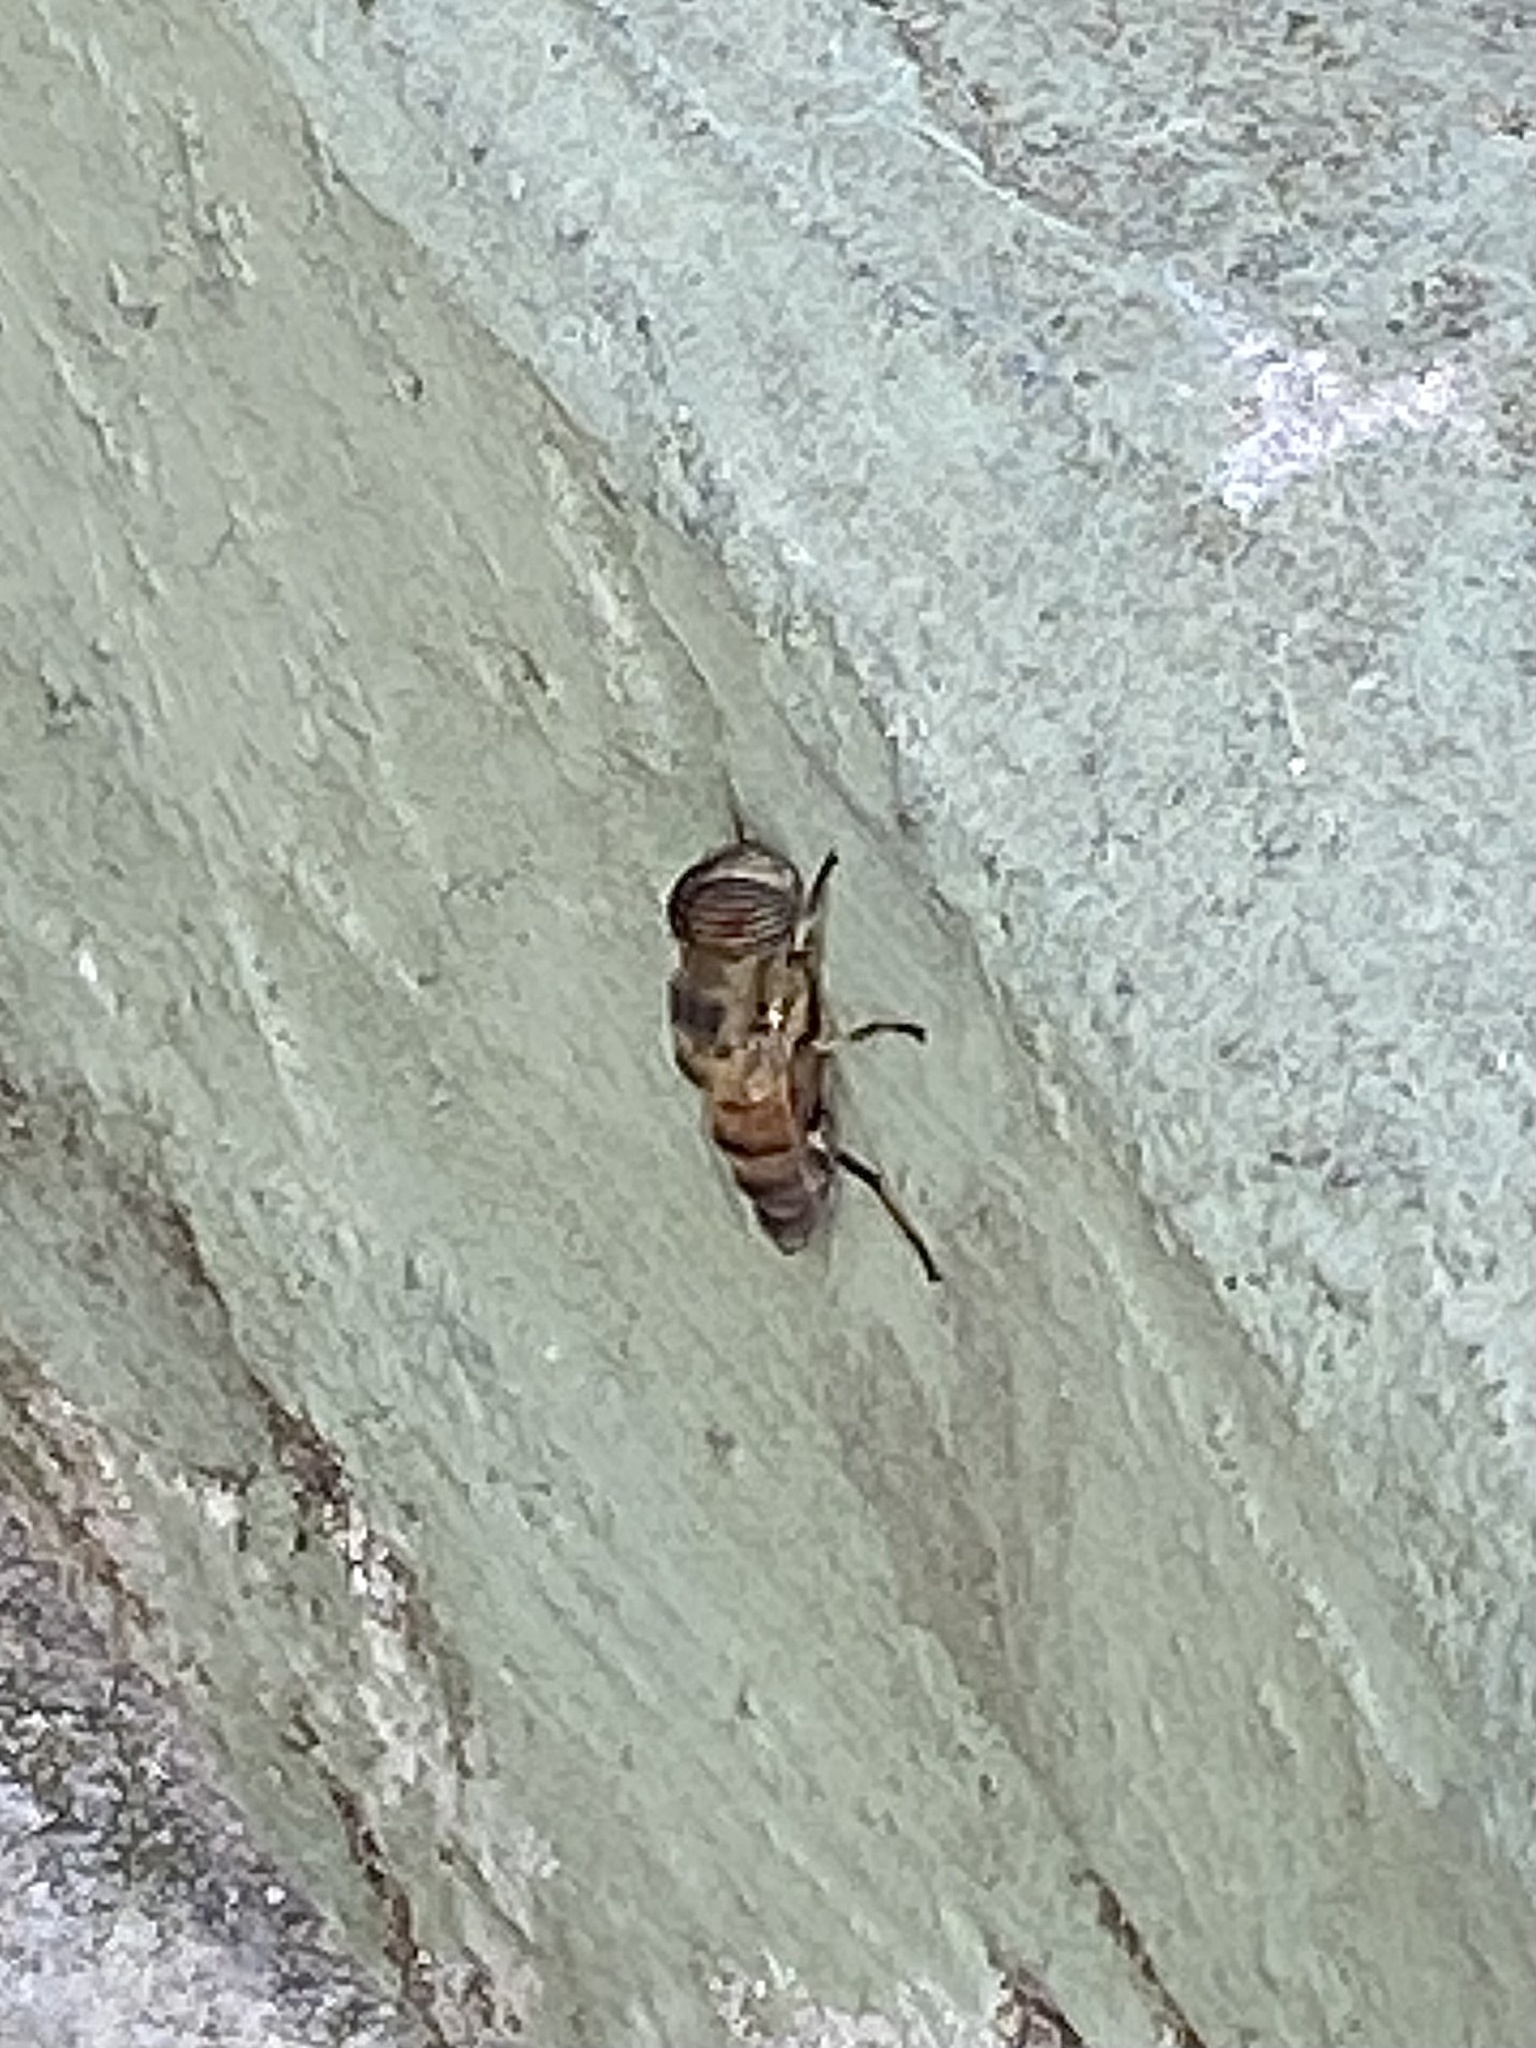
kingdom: Animalia
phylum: Arthropoda
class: Insecta
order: Diptera
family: Syrphidae
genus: Eristalinus
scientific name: Eristalinus taeniops
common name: Syrphid fly
